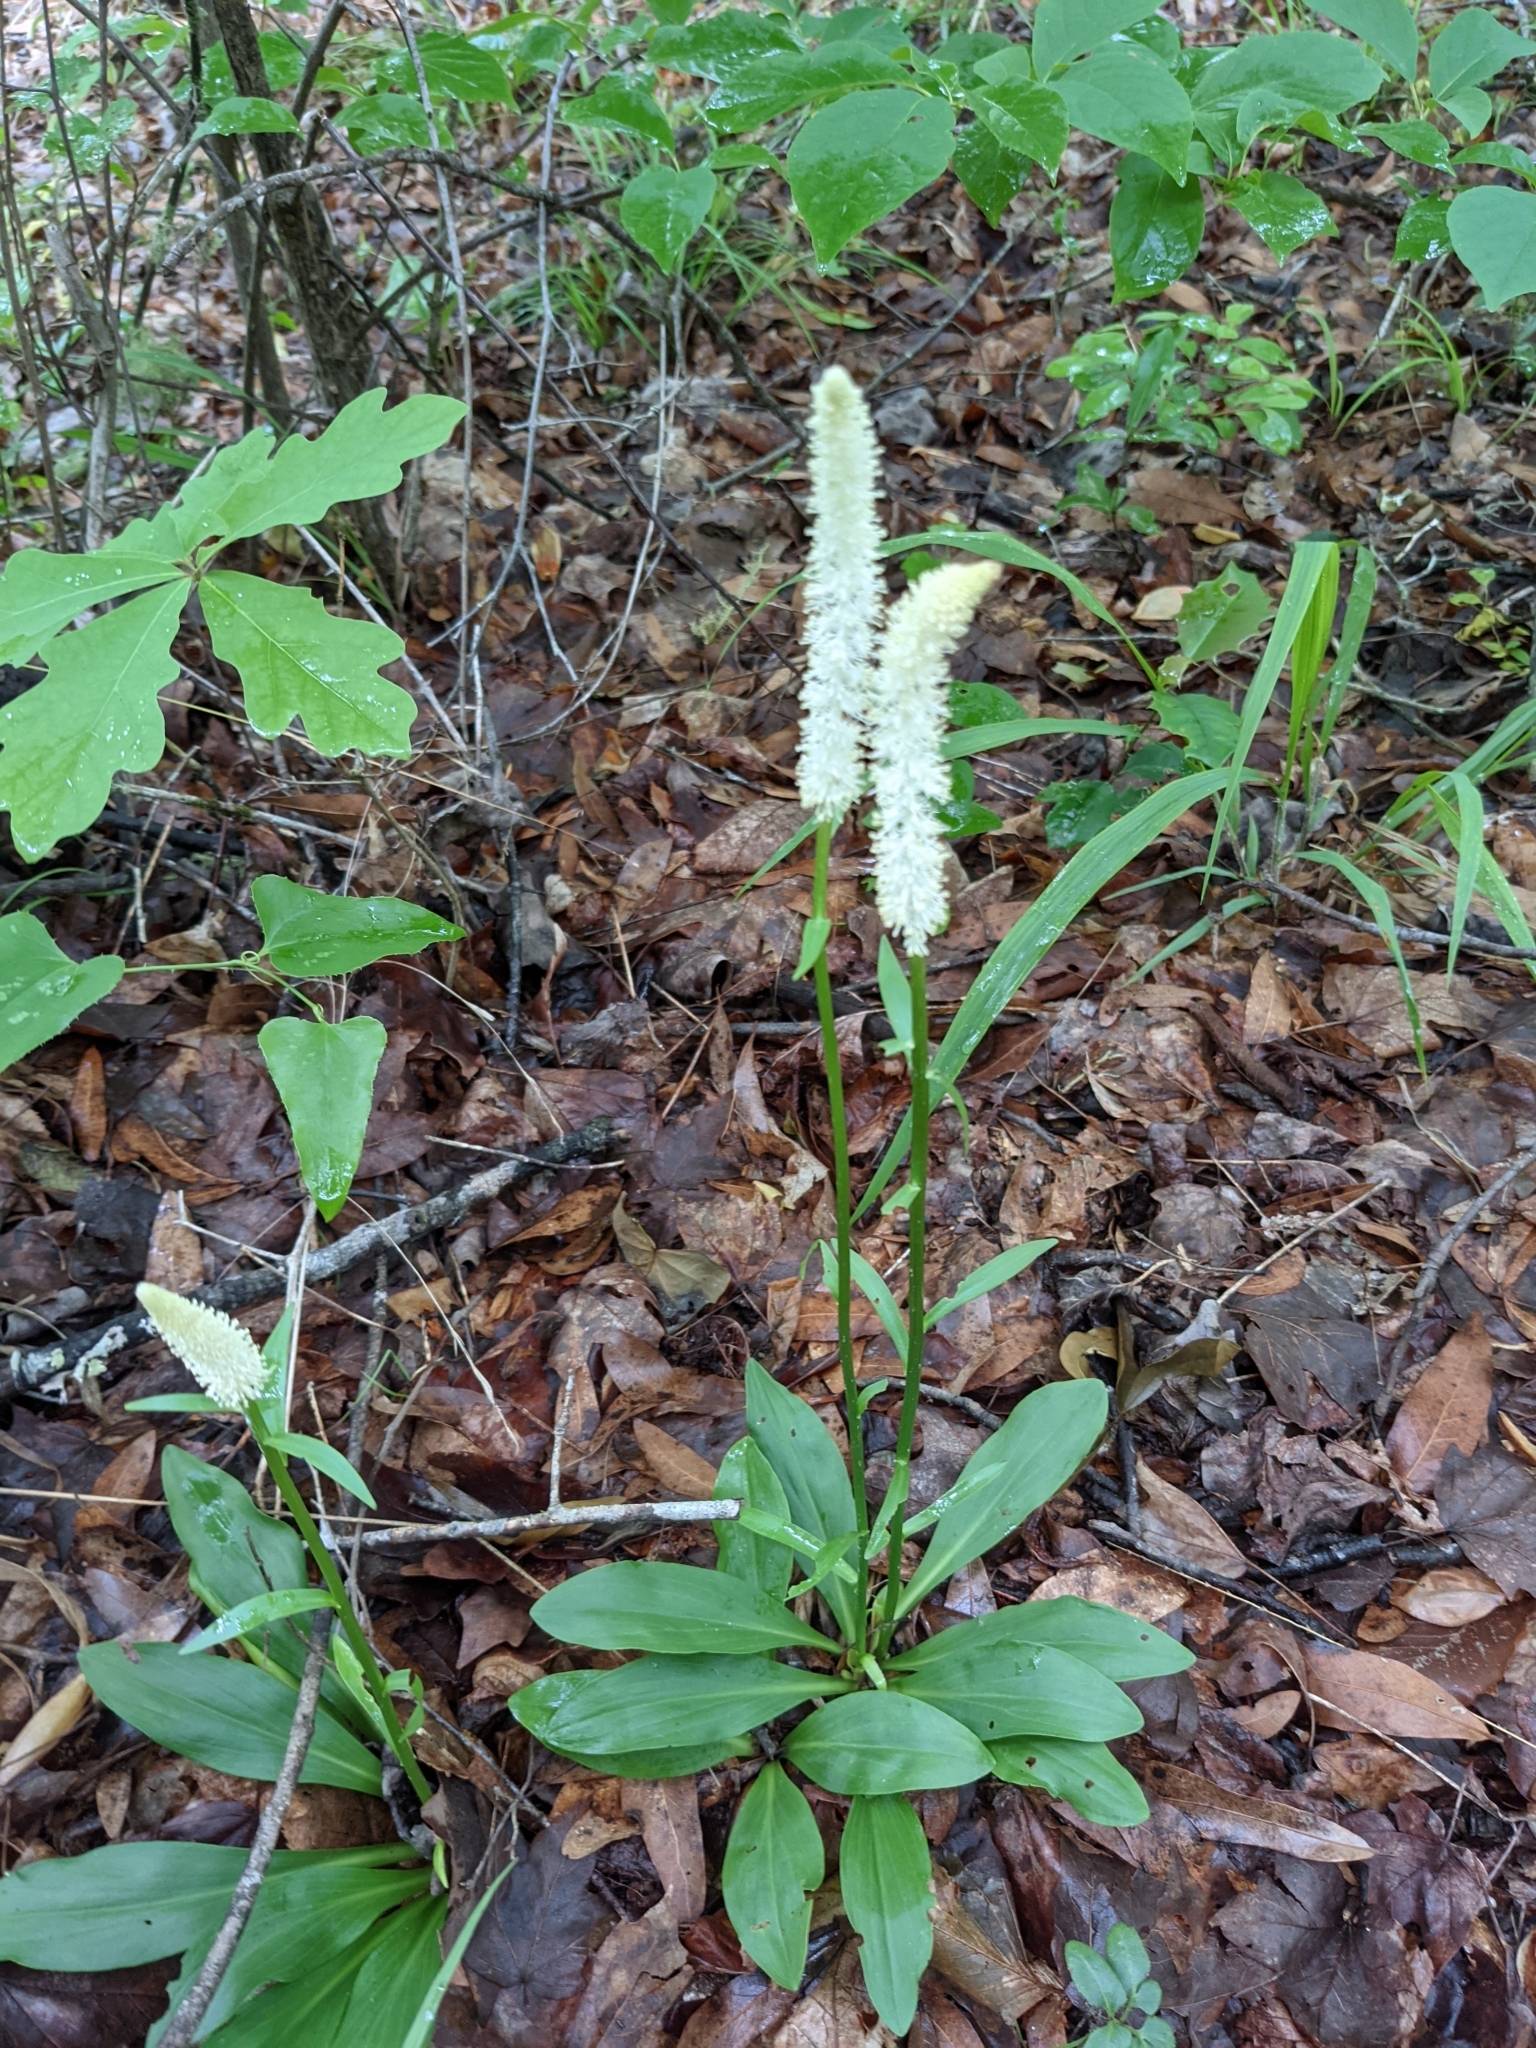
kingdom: Plantae
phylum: Tracheophyta
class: Liliopsida
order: Liliales
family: Melanthiaceae
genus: Chamaelirium
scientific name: Chamaelirium luteum
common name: Fairy-wand
